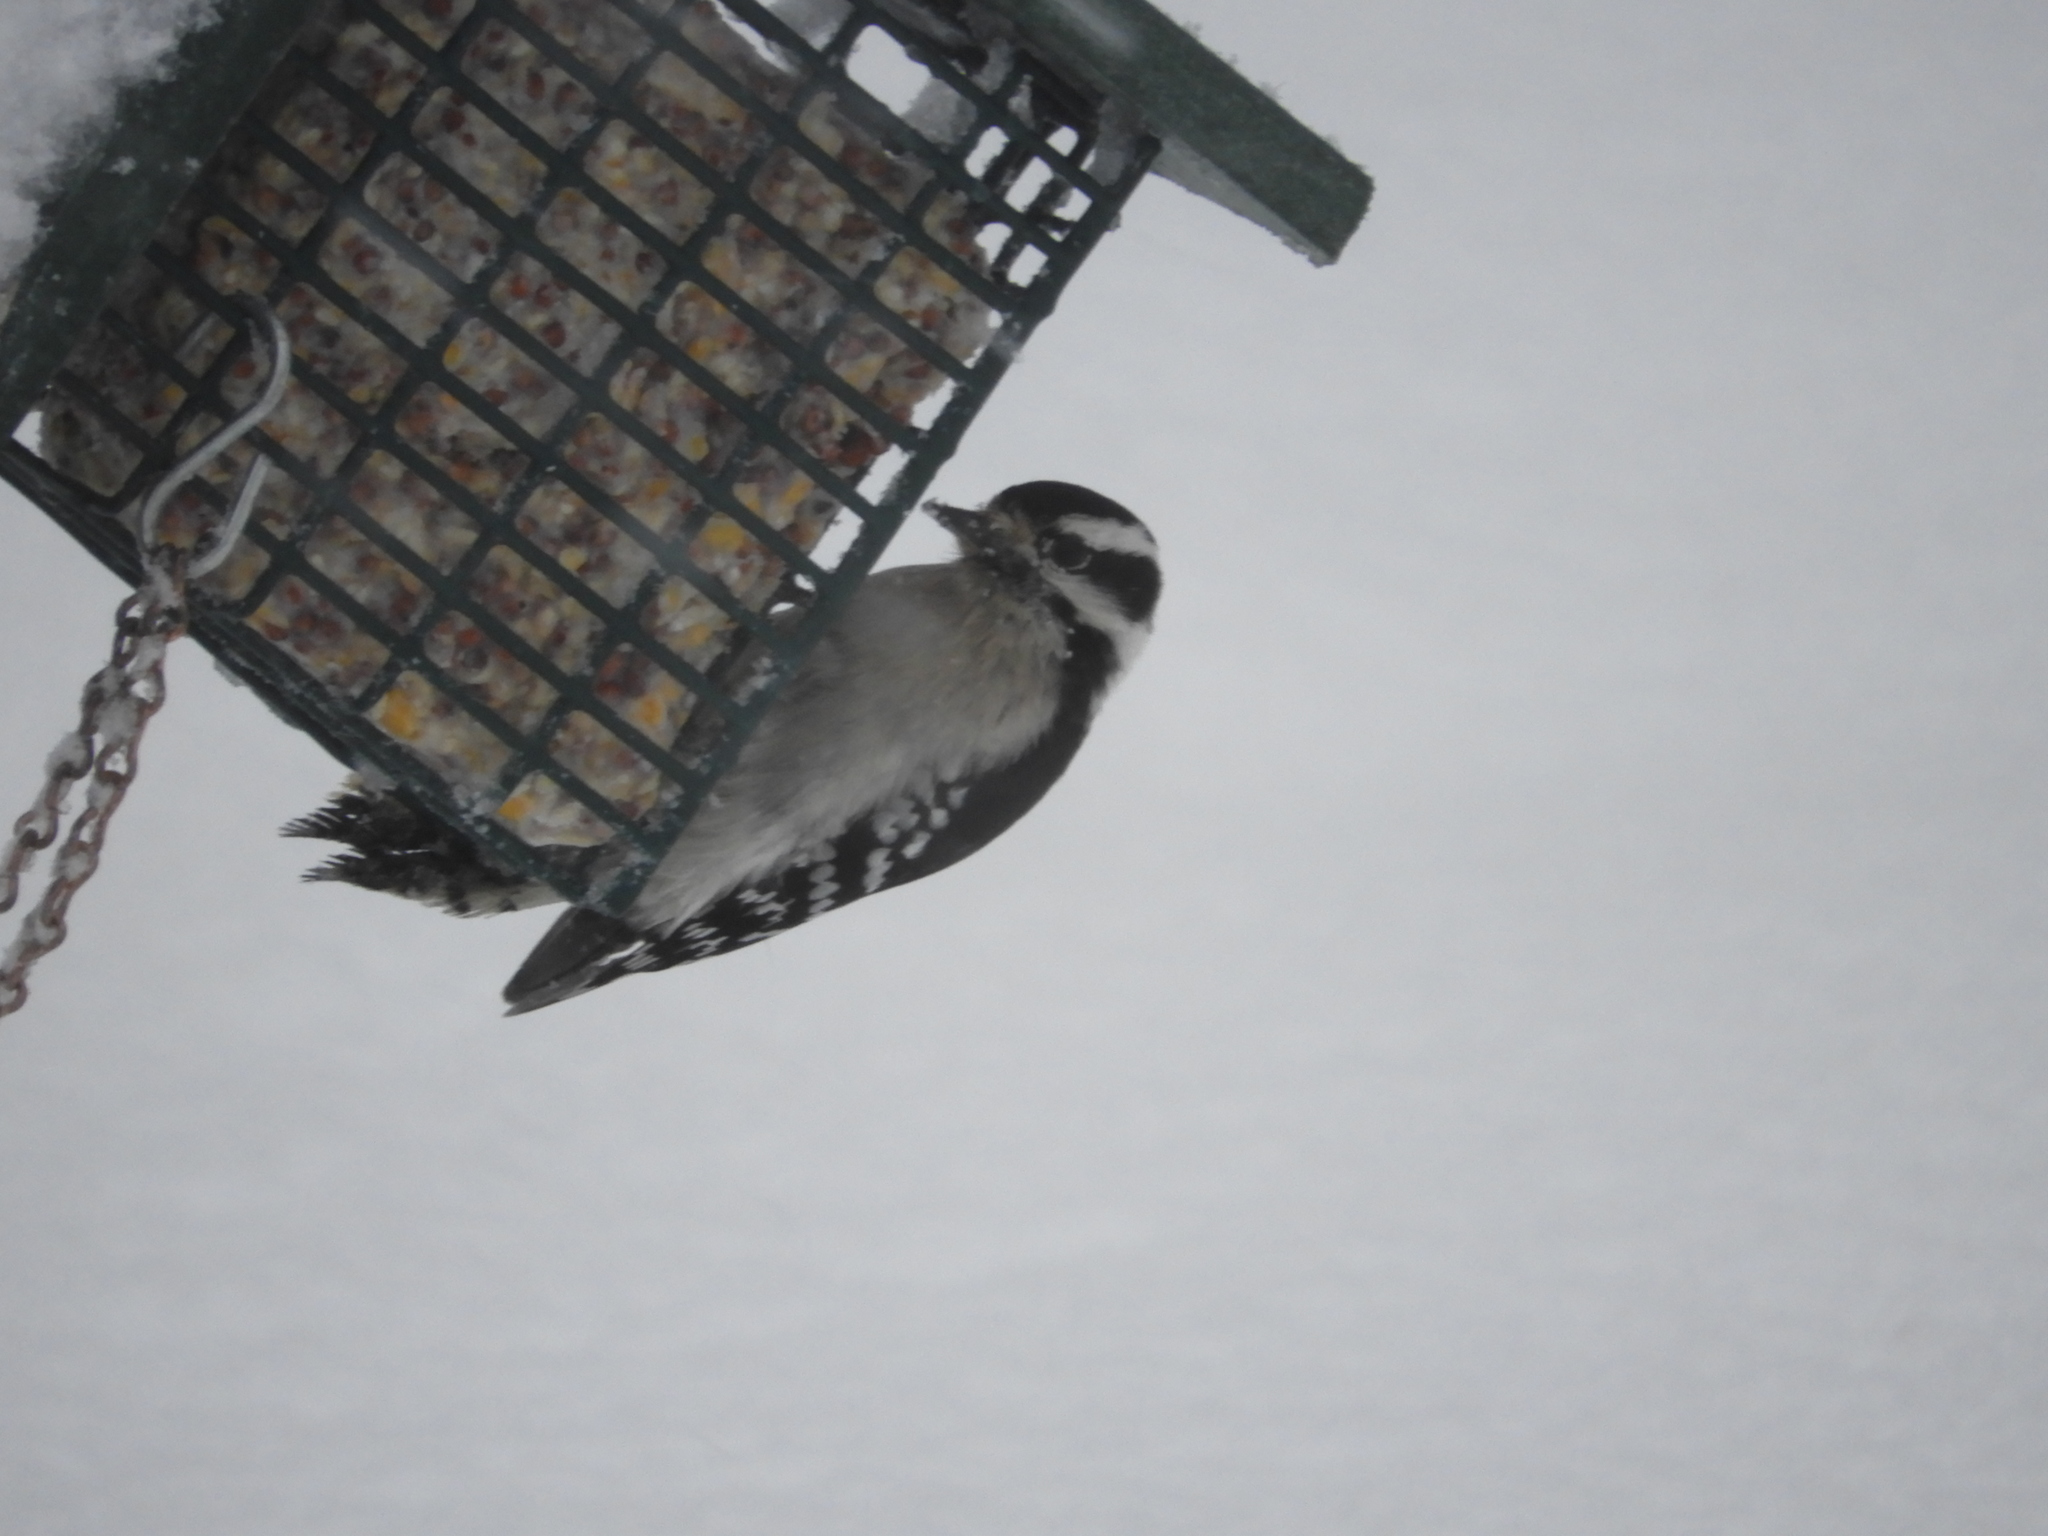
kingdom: Animalia
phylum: Chordata
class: Aves
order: Piciformes
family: Picidae
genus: Dryobates
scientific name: Dryobates pubescens
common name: Downy woodpecker
